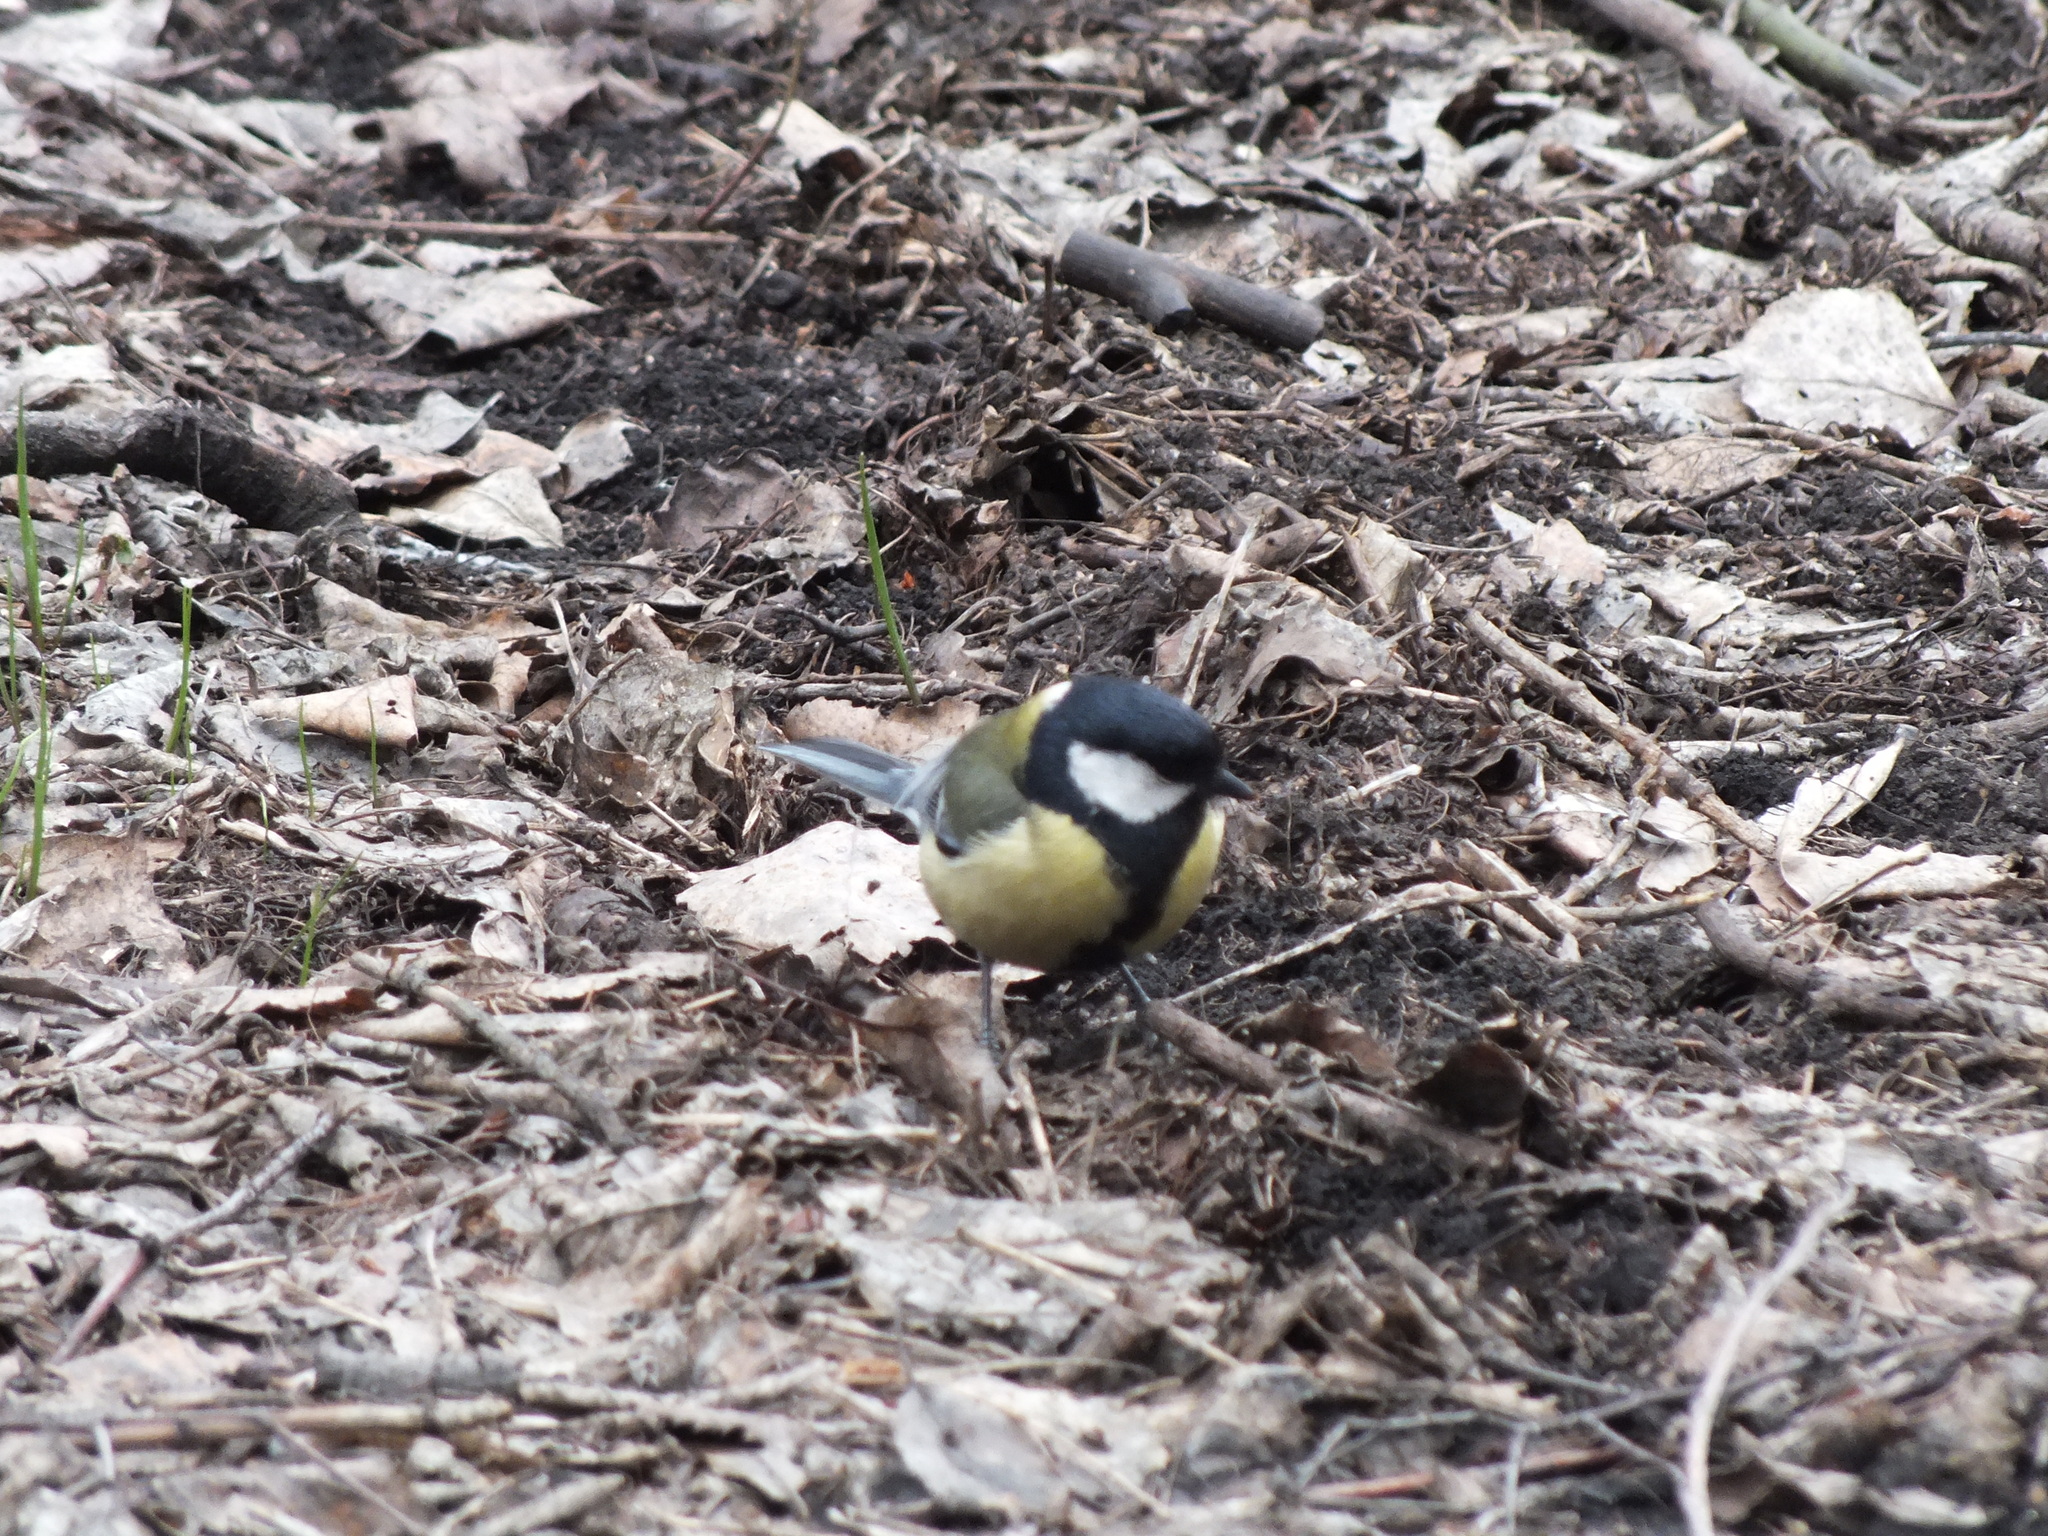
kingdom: Animalia
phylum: Chordata
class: Aves
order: Passeriformes
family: Paridae
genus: Parus
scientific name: Parus major
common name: Great tit
